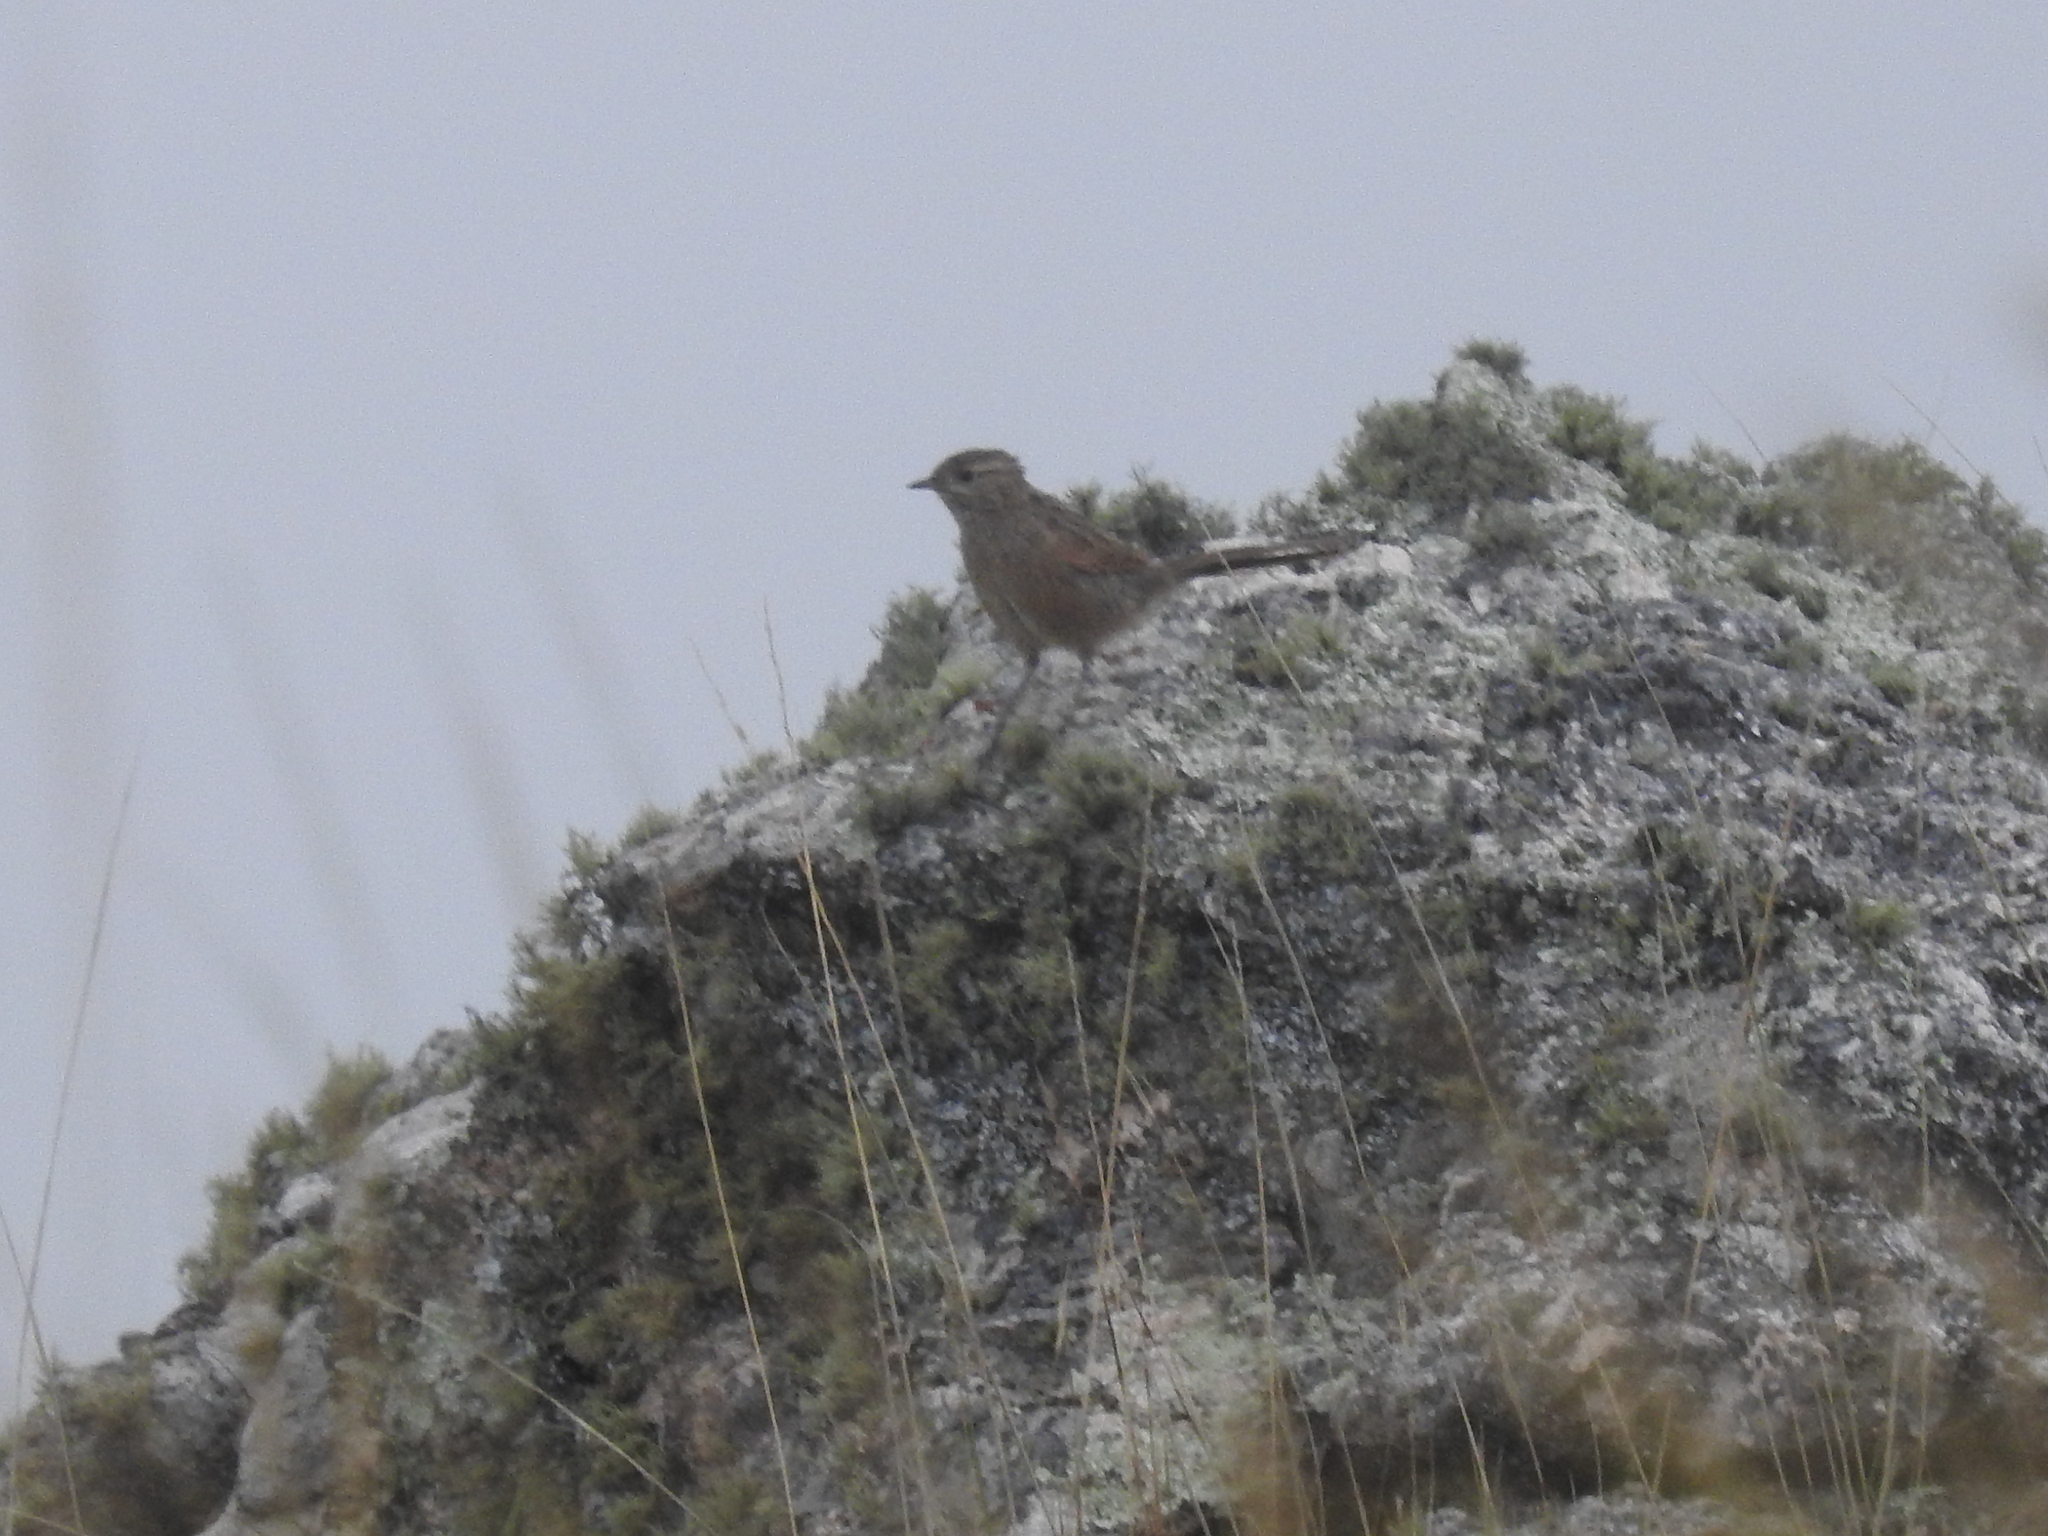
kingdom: Animalia
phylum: Chordata
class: Aves
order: Passeriformes
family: Furnariidae
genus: Asthenes
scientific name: Asthenes wyatti
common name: Streak-backed canastero
